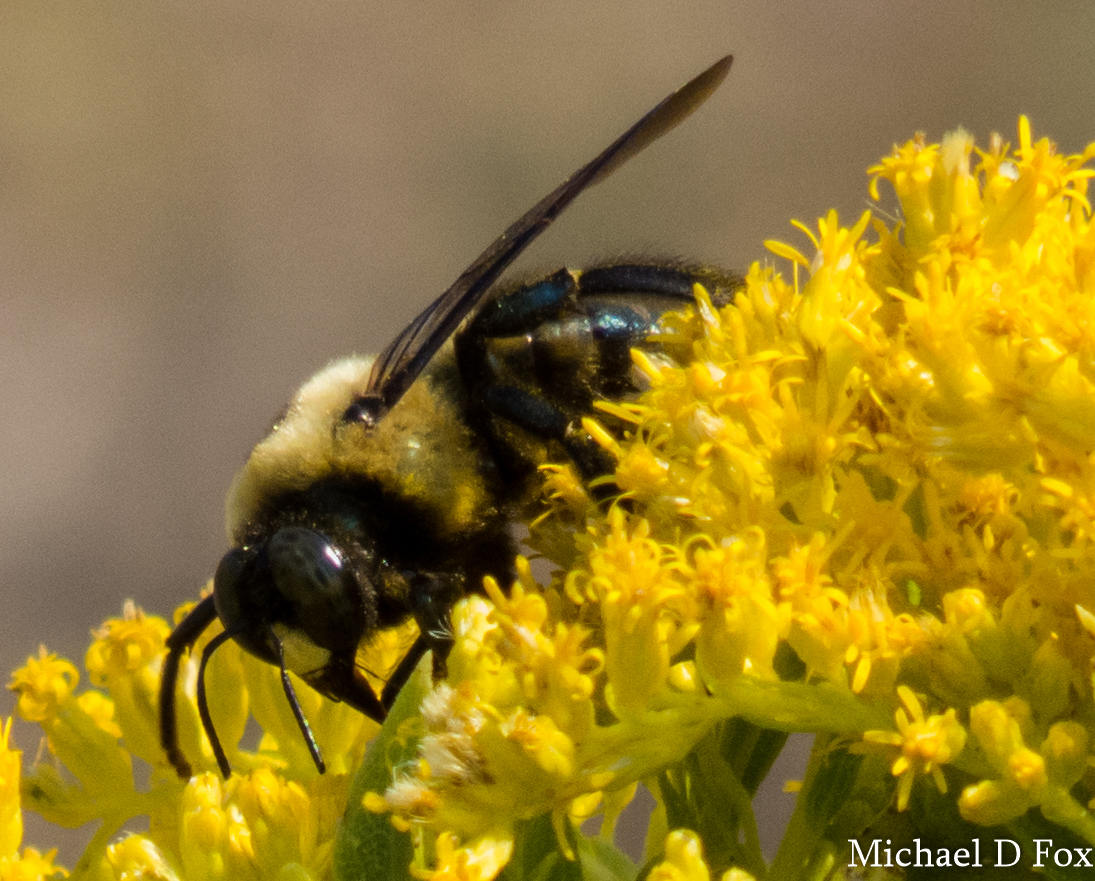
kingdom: Animalia
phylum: Arthropoda
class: Insecta
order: Hymenoptera
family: Apidae
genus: Xylocopa
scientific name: Xylocopa virginica
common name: Carpenter bee
